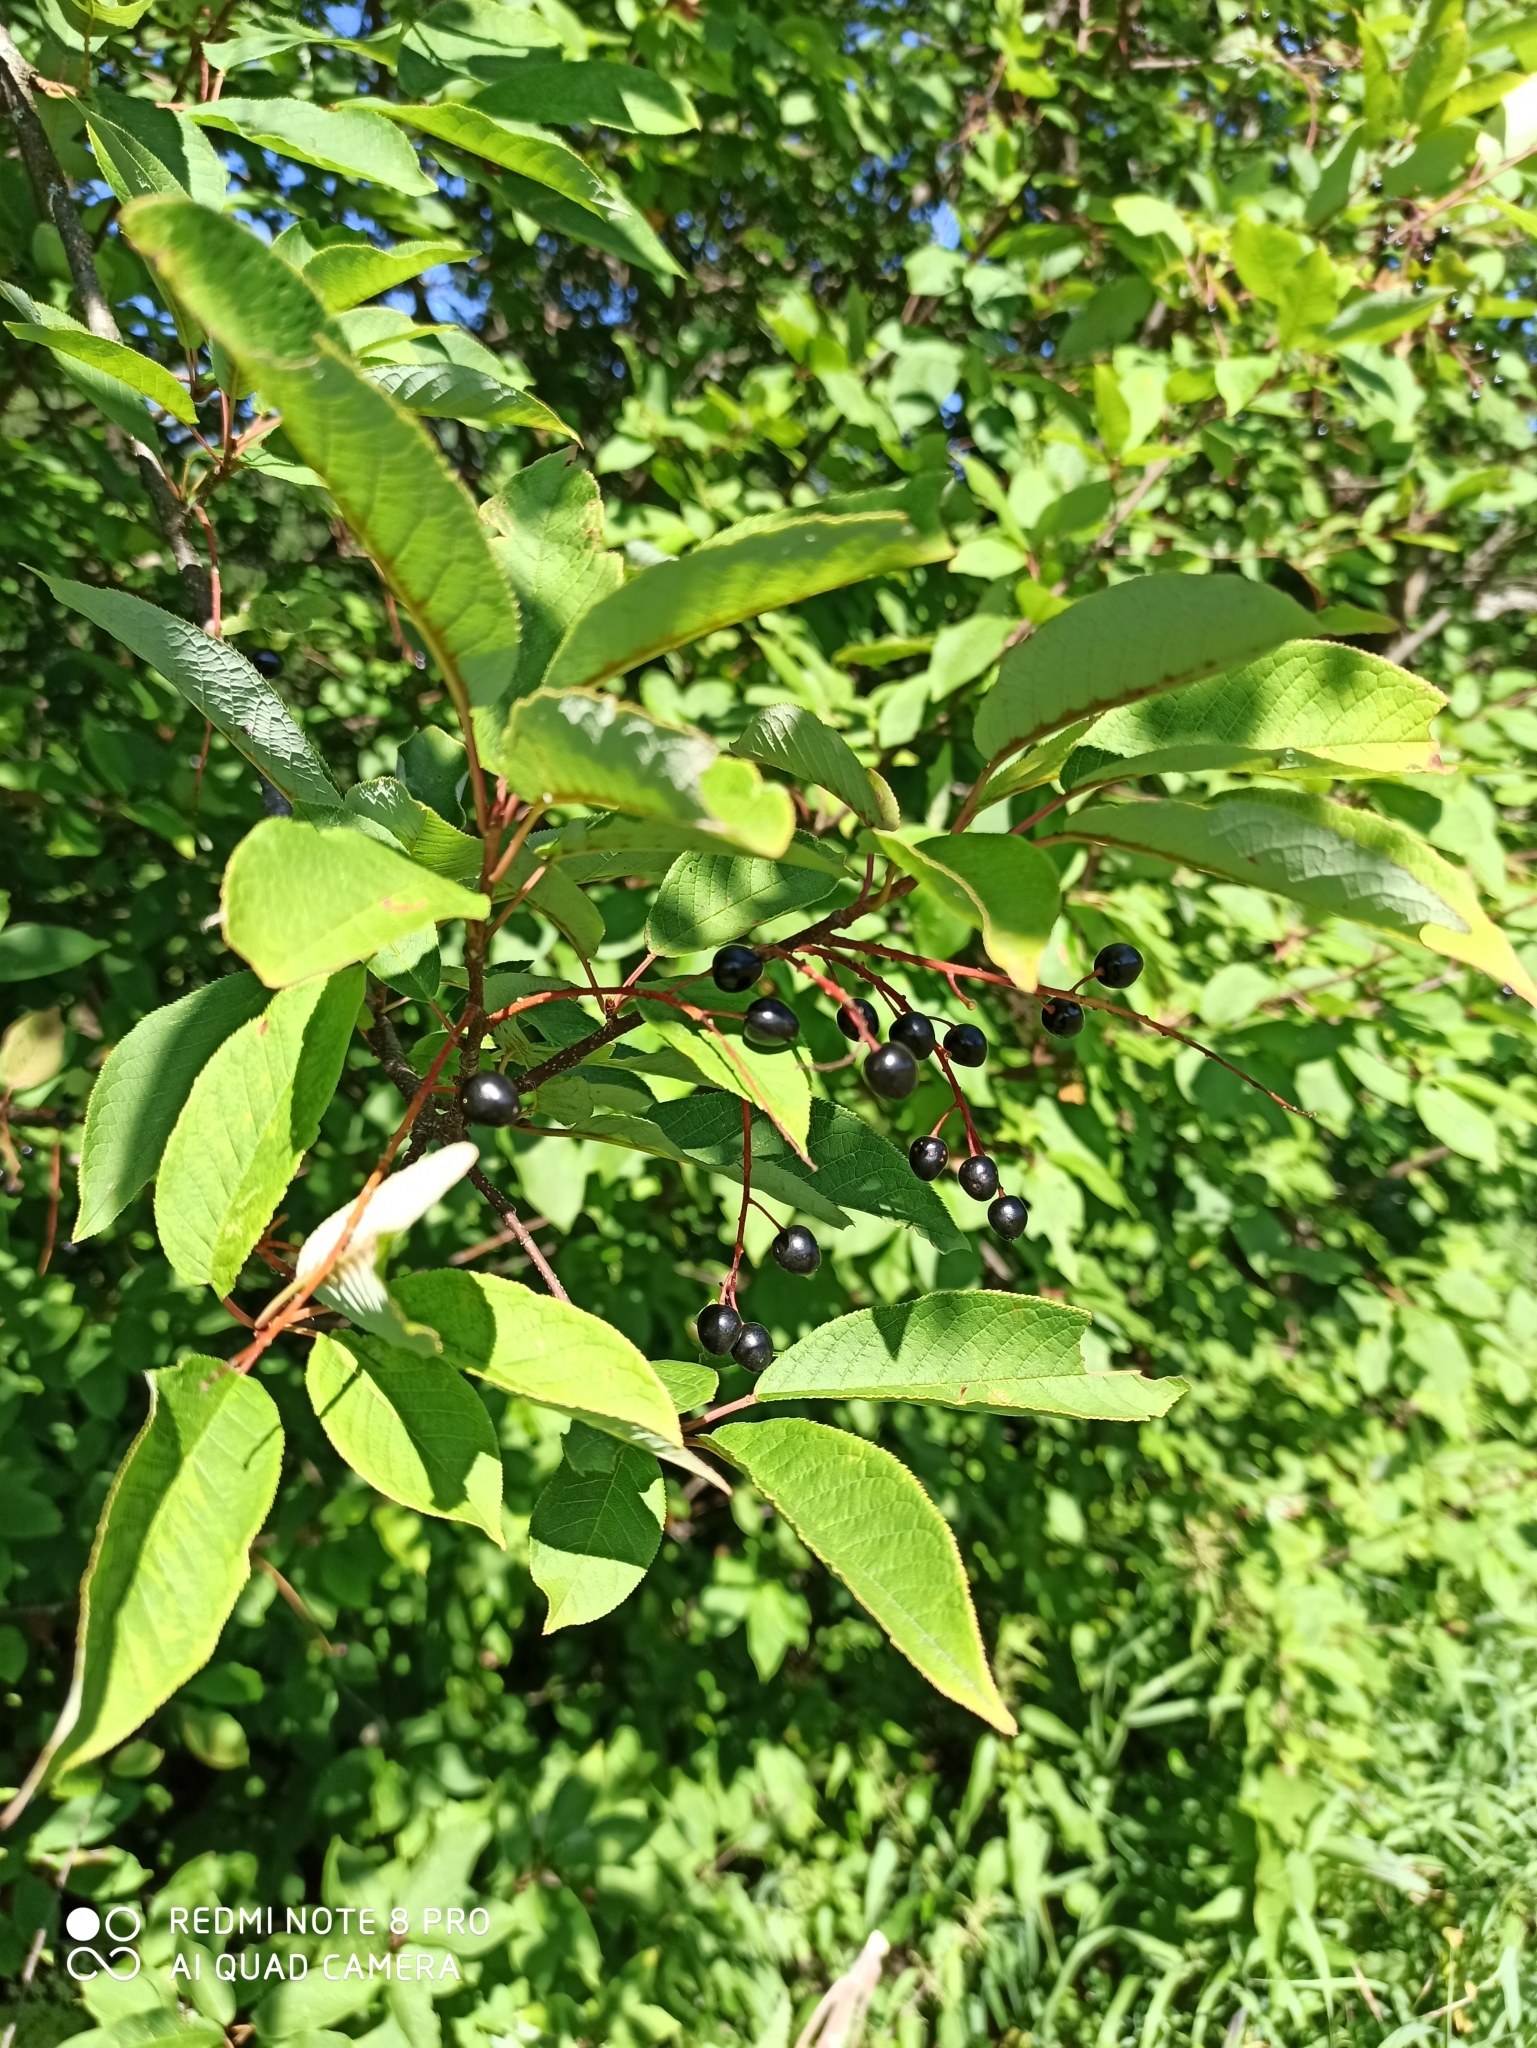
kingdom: Plantae
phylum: Tracheophyta
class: Magnoliopsida
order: Rosales
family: Rosaceae
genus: Prunus
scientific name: Prunus padus
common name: Bird cherry
